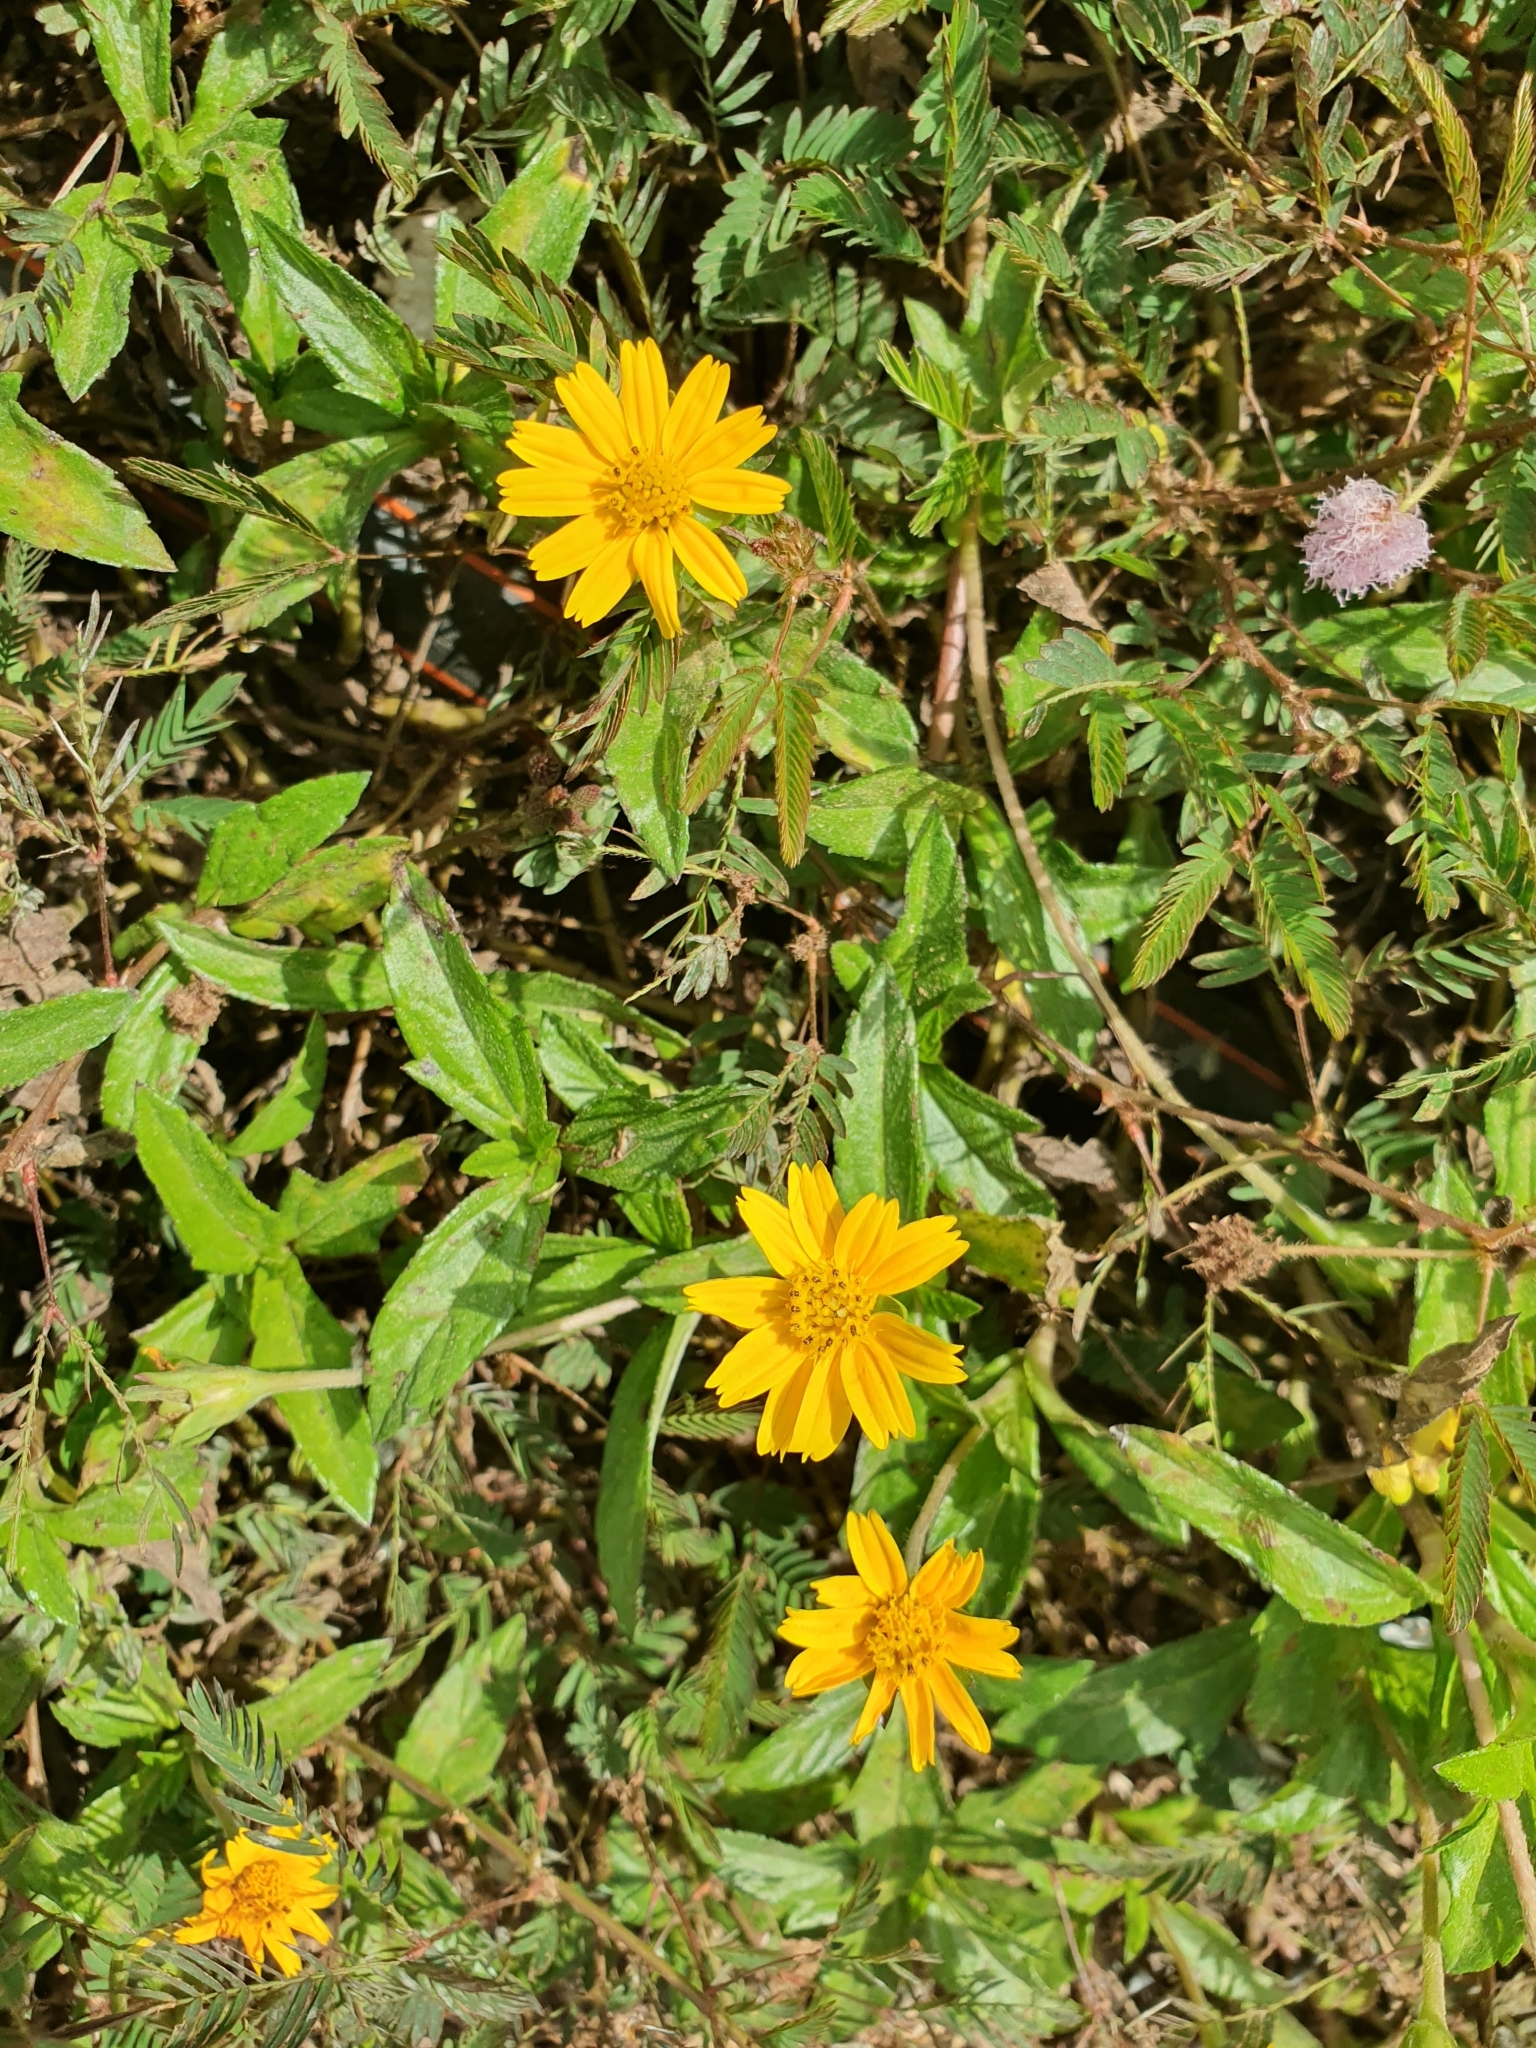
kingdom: Plantae
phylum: Tracheophyta
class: Magnoliopsida
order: Asterales
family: Asteraceae
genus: Sphagneticola
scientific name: Sphagneticola trilobata
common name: Bay biscayne creeping-oxeye
